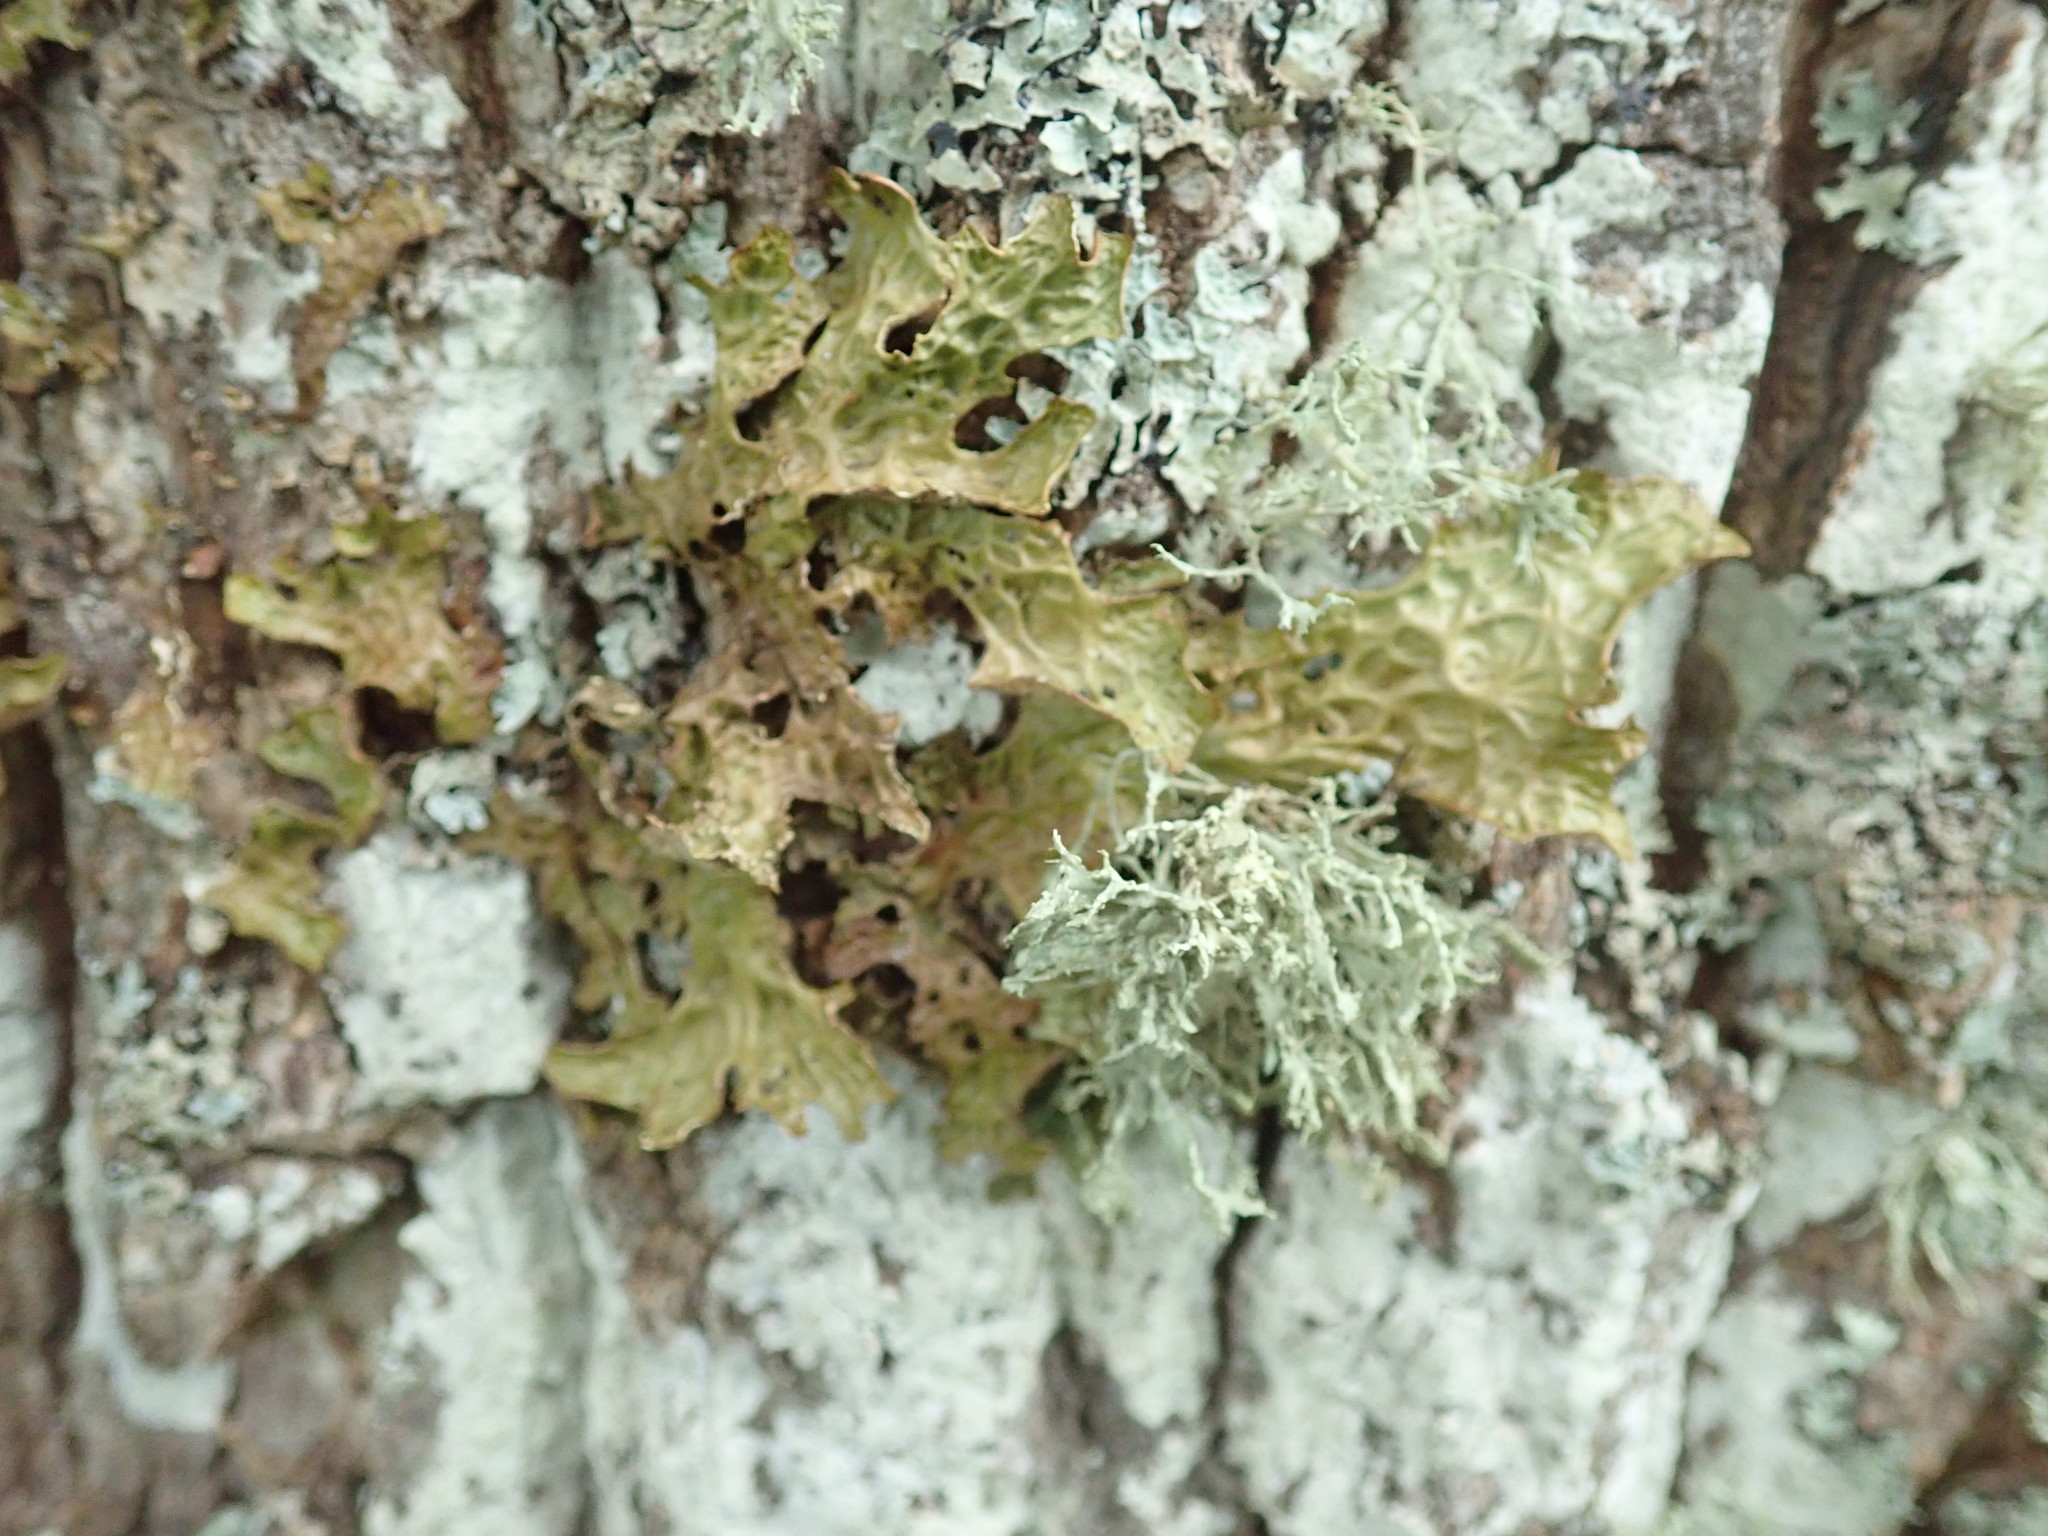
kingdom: Fungi
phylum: Ascomycota
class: Lecanoromycetes
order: Peltigerales
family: Lobariaceae
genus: Lobaria
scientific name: Lobaria pulmonaria
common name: Lungwort
